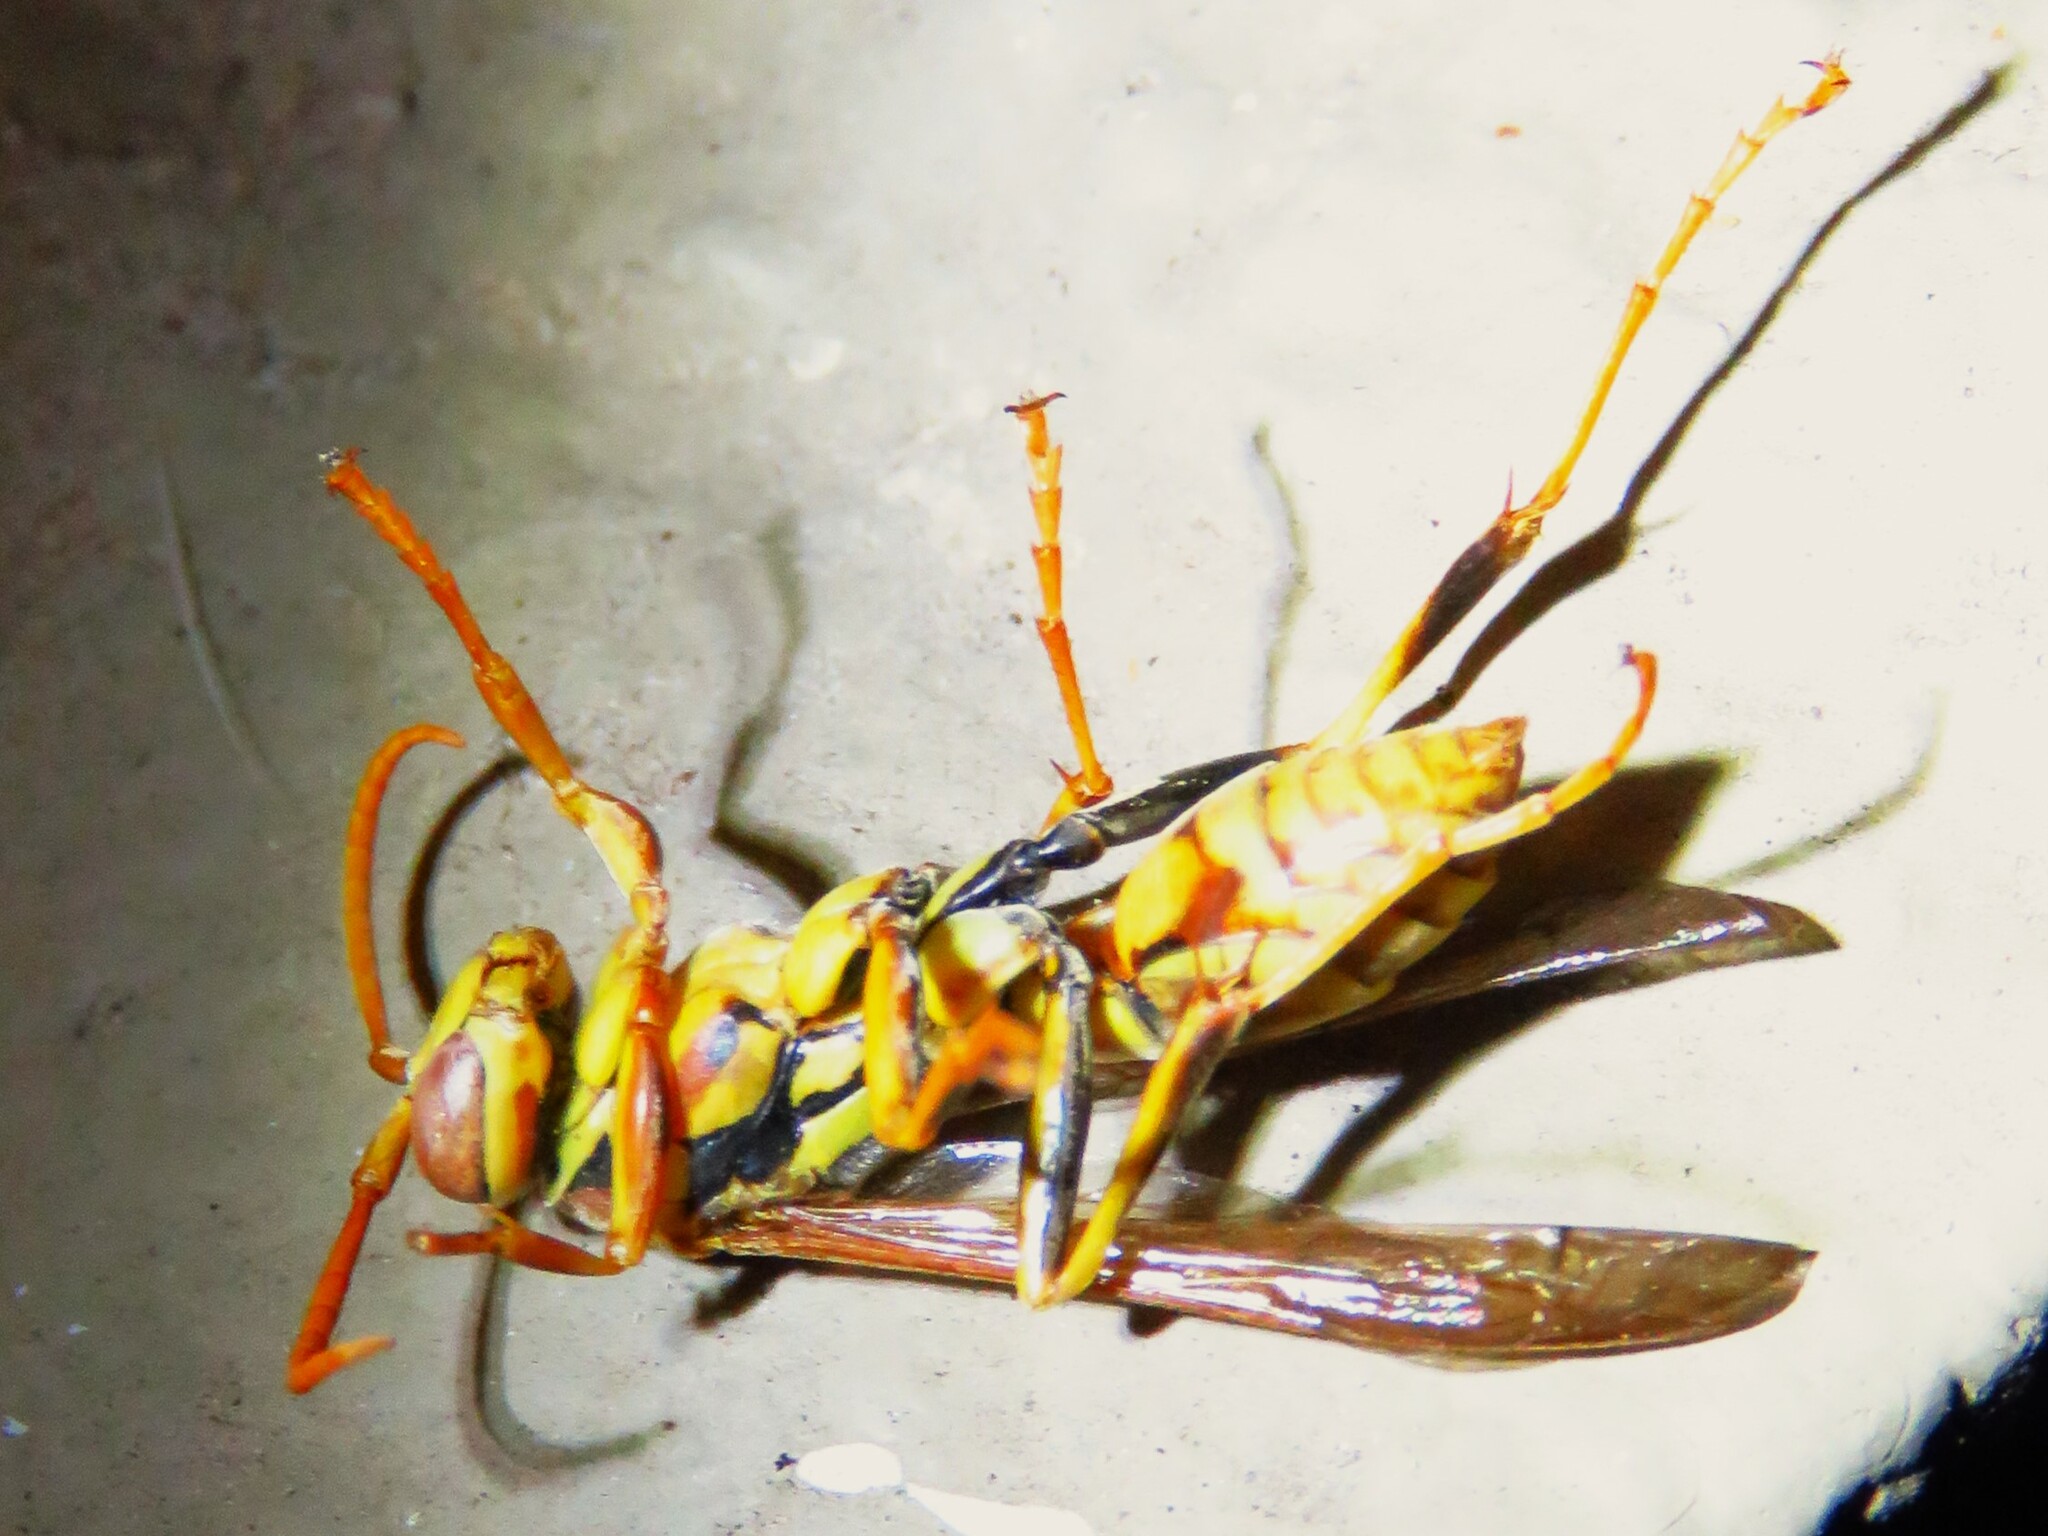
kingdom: Animalia
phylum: Arthropoda
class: Insecta
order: Hymenoptera
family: Eumenidae
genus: Polistes
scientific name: Polistes exclamans
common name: Paper wasp
